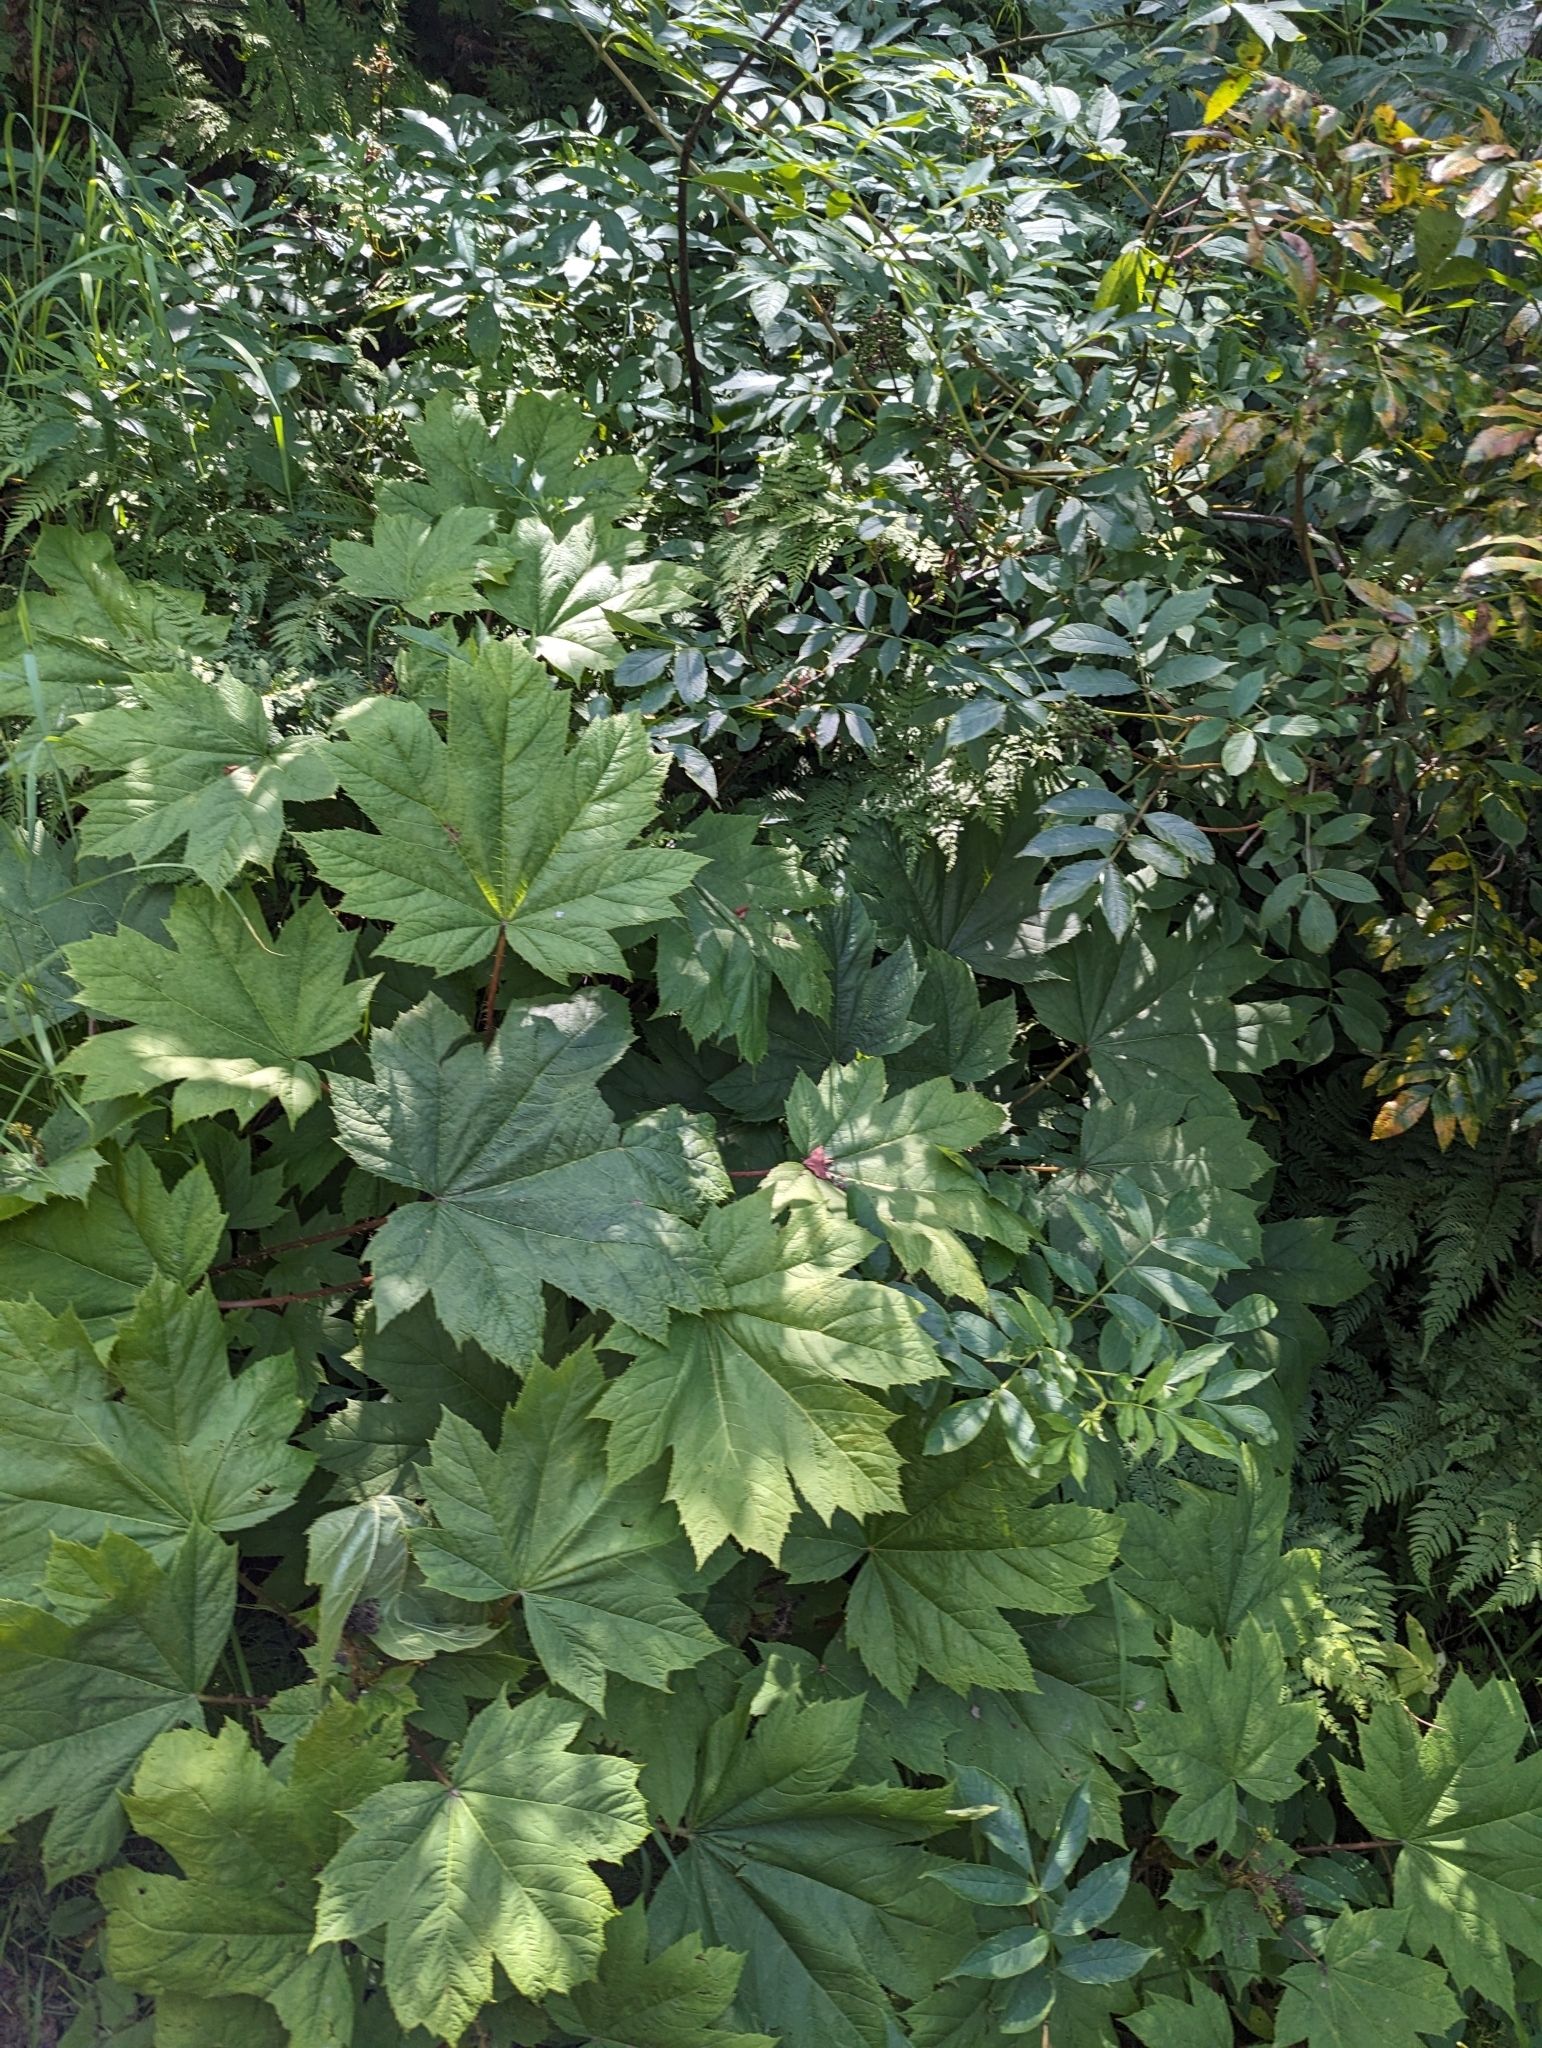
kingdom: Plantae
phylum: Tracheophyta
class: Magnoliopsida
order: Apiales
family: Araliaceae
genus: Oplopanax
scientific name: Oplopanax horridus
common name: Devil's walking-stick
